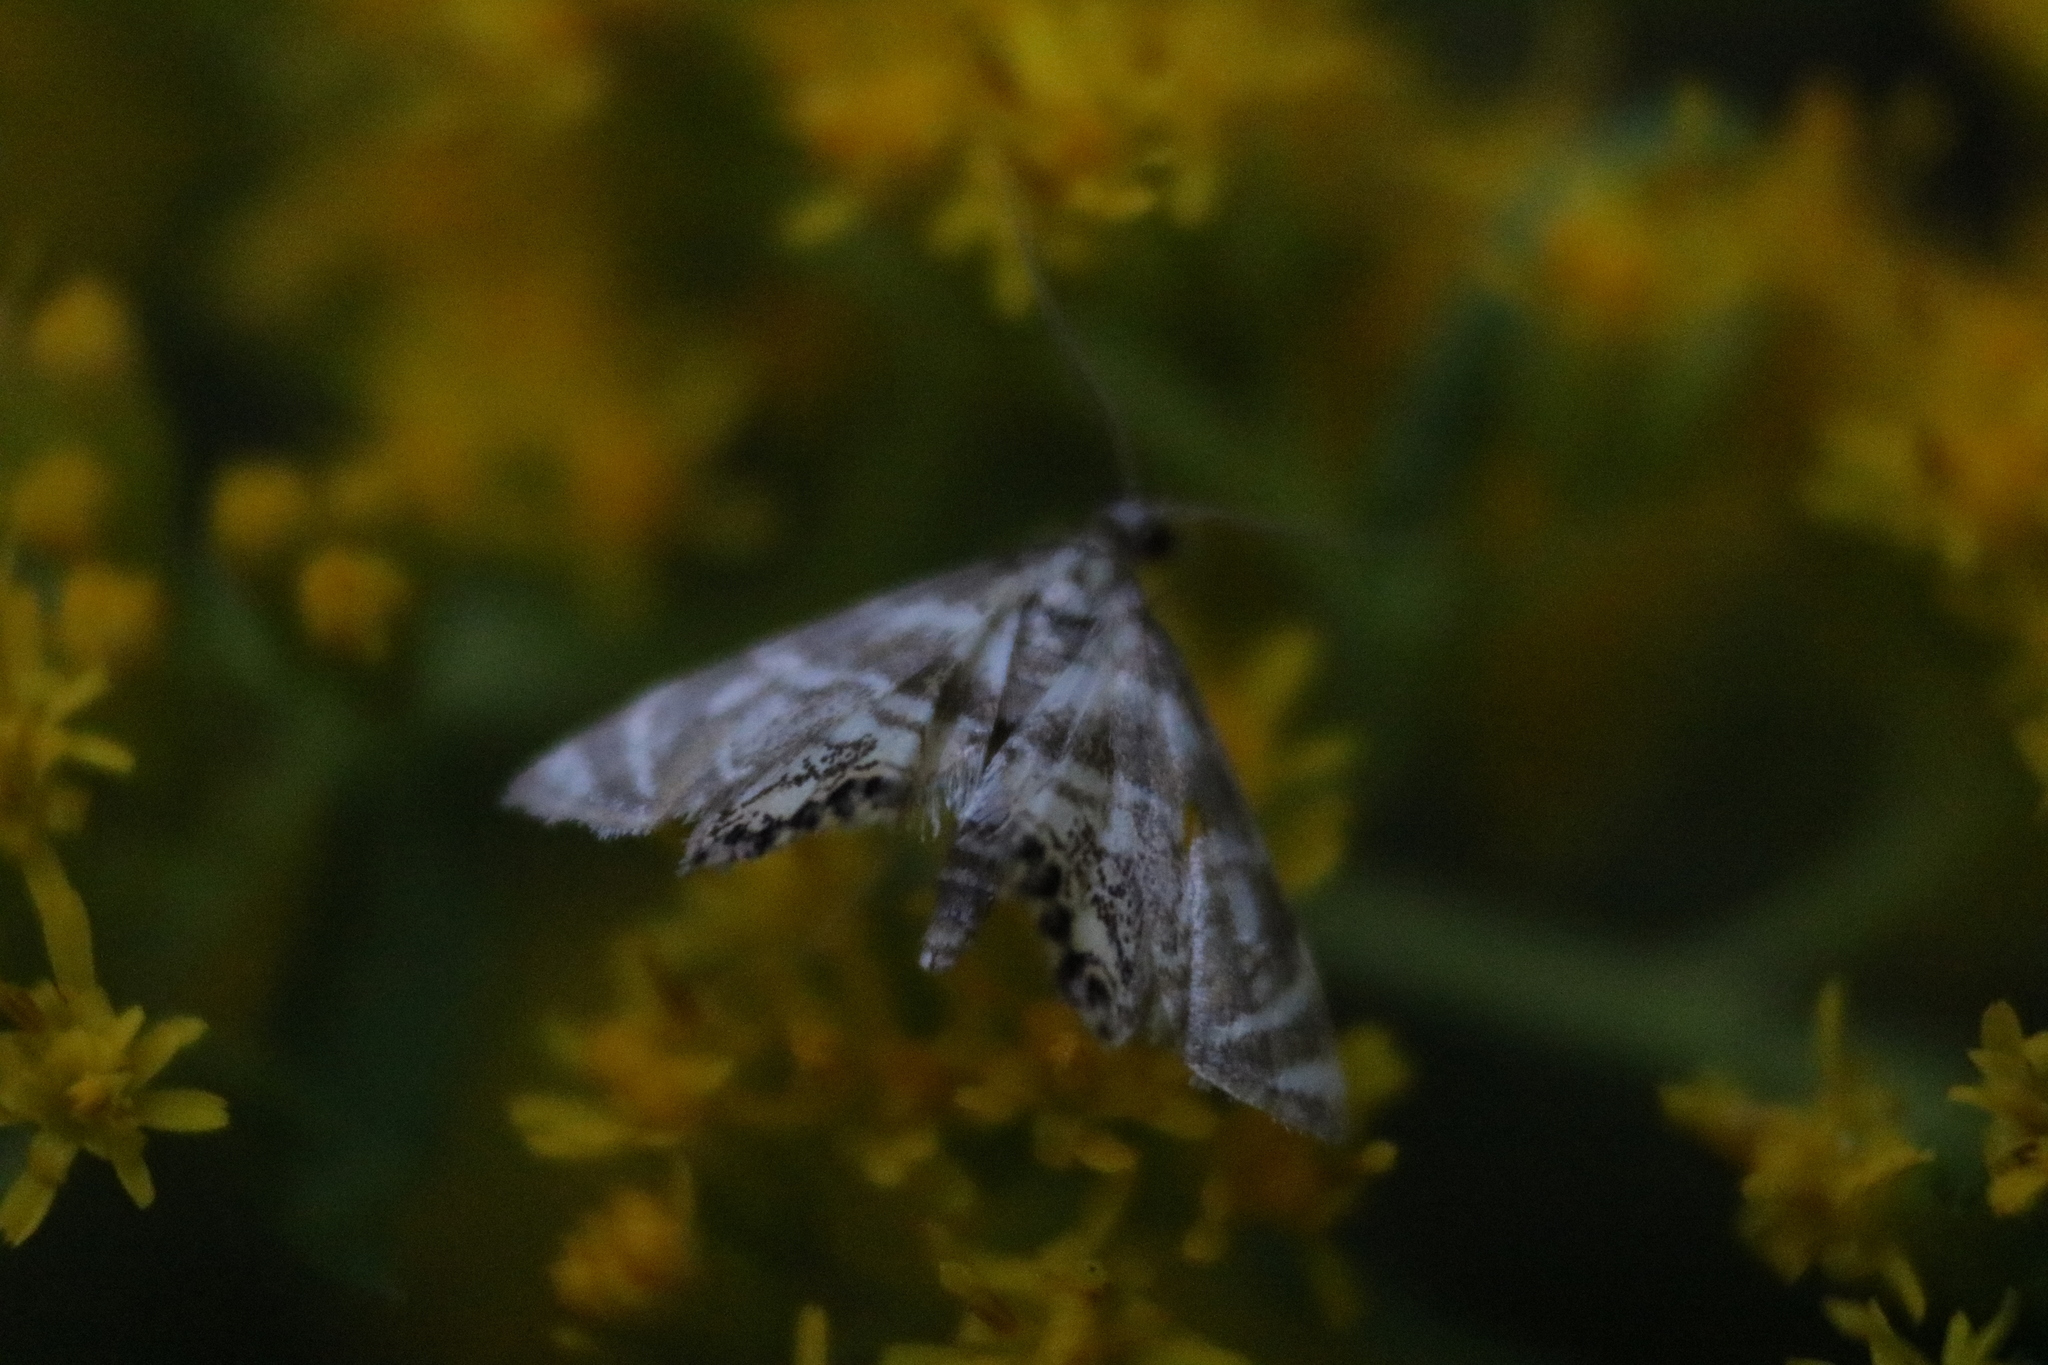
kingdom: Animalia
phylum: Arthropoda
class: Insecta
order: Lepidoptera
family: Crambidae
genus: Petrophila
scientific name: Petrophila canadensis
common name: Canadian petrophila
